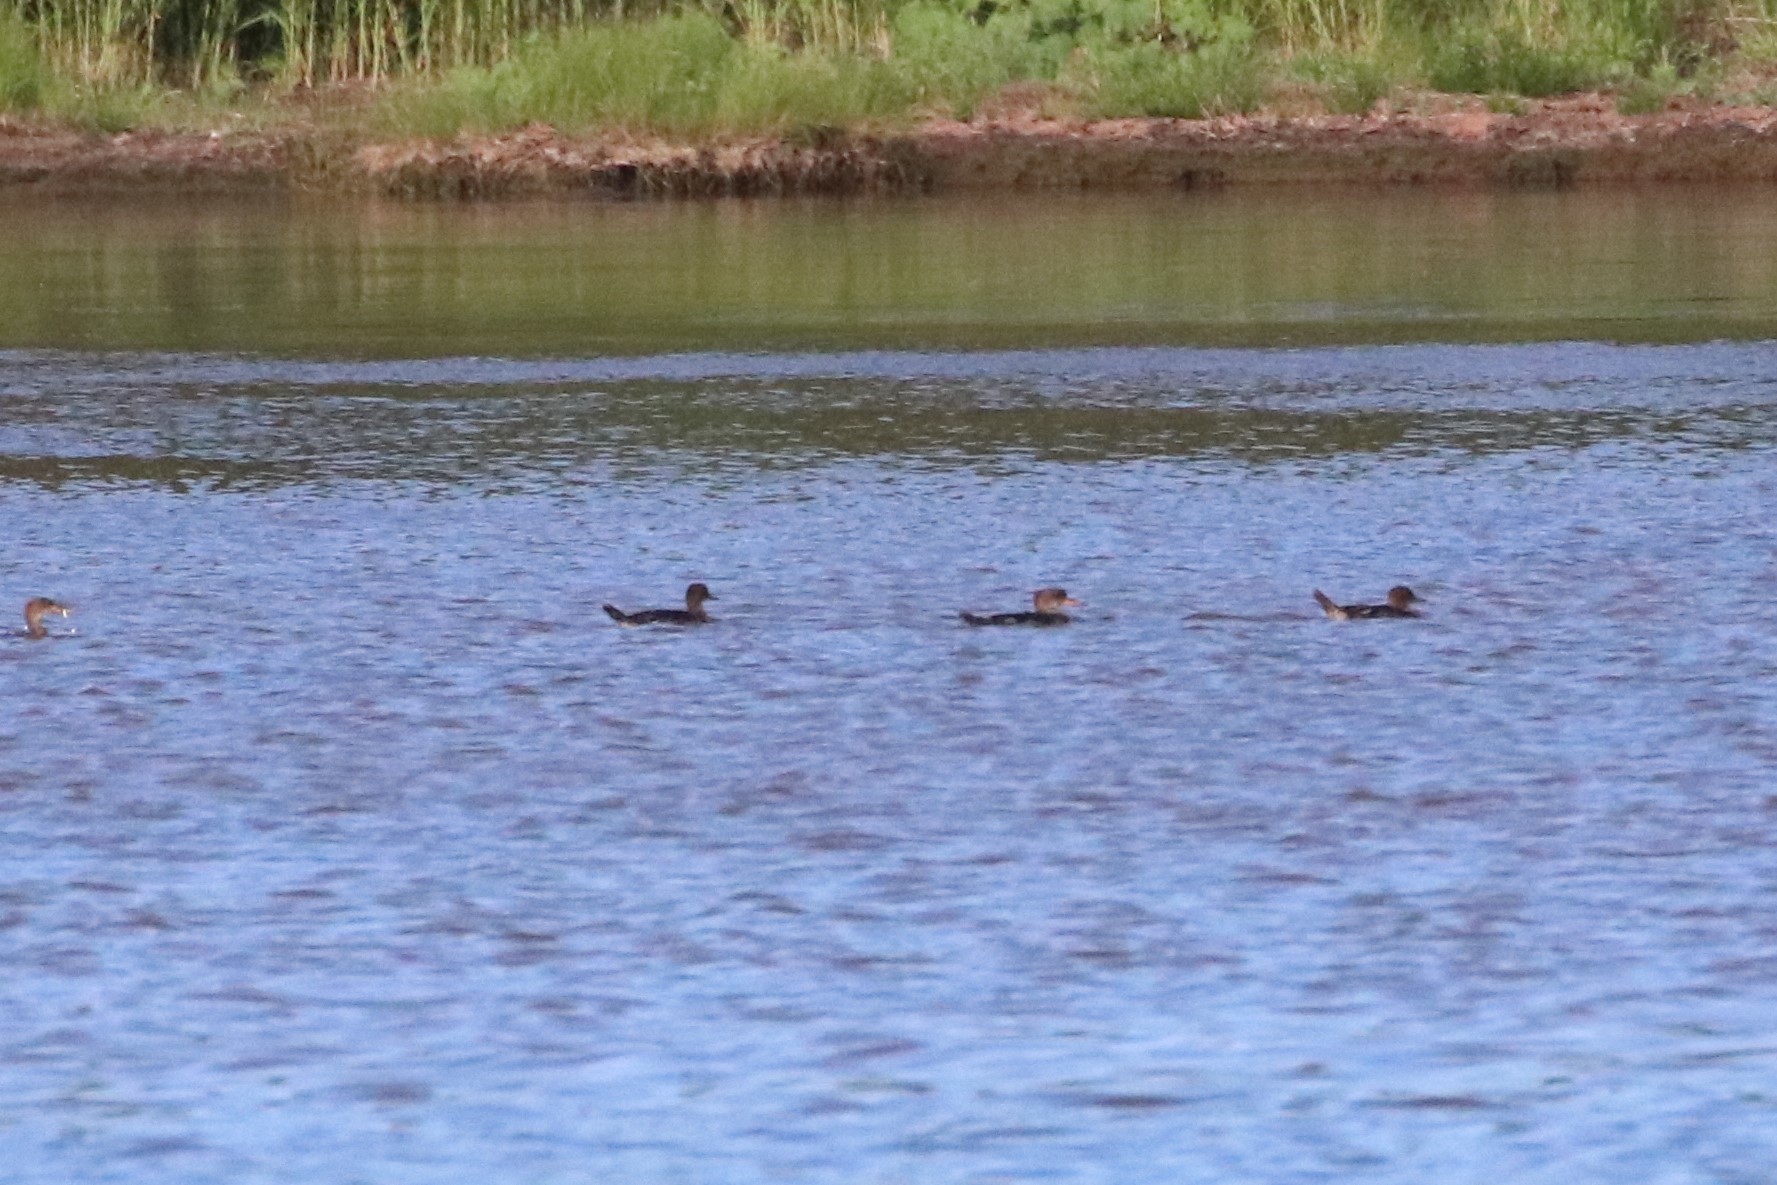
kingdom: Animalia
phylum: Chordata
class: Aves
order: Anseriformes
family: Anatidae
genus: Lophodytes
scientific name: Lophodytes cucullatus
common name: Hooded merganser
